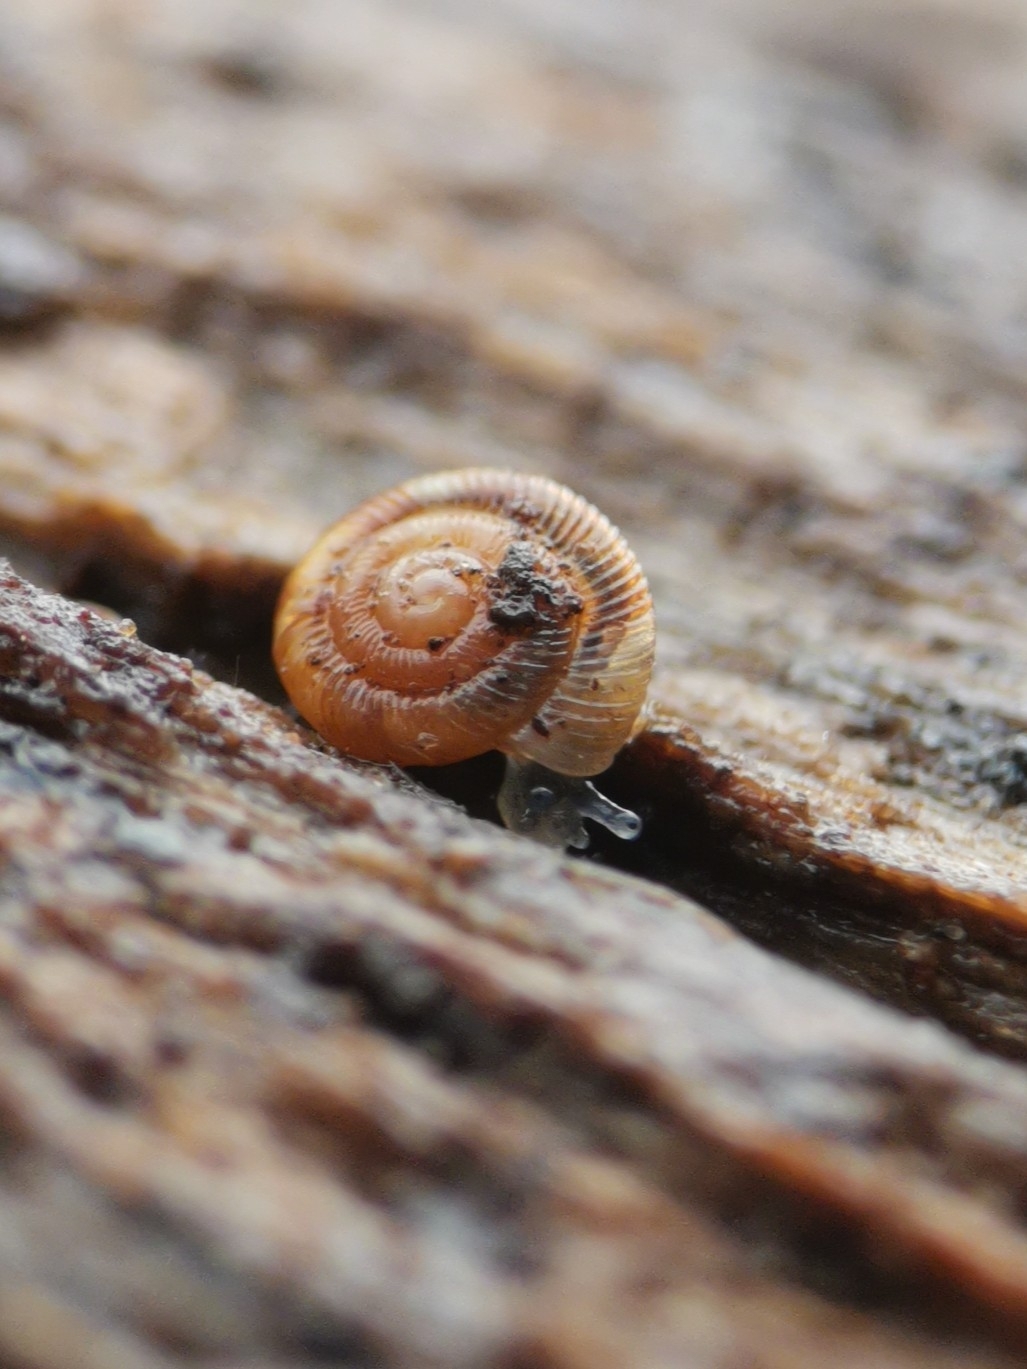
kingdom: Animalia
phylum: Mollusca
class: Gastropoda
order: Stylommatophora
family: Discidae
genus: Discus
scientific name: Discus rotundatus
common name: Rounded snail
